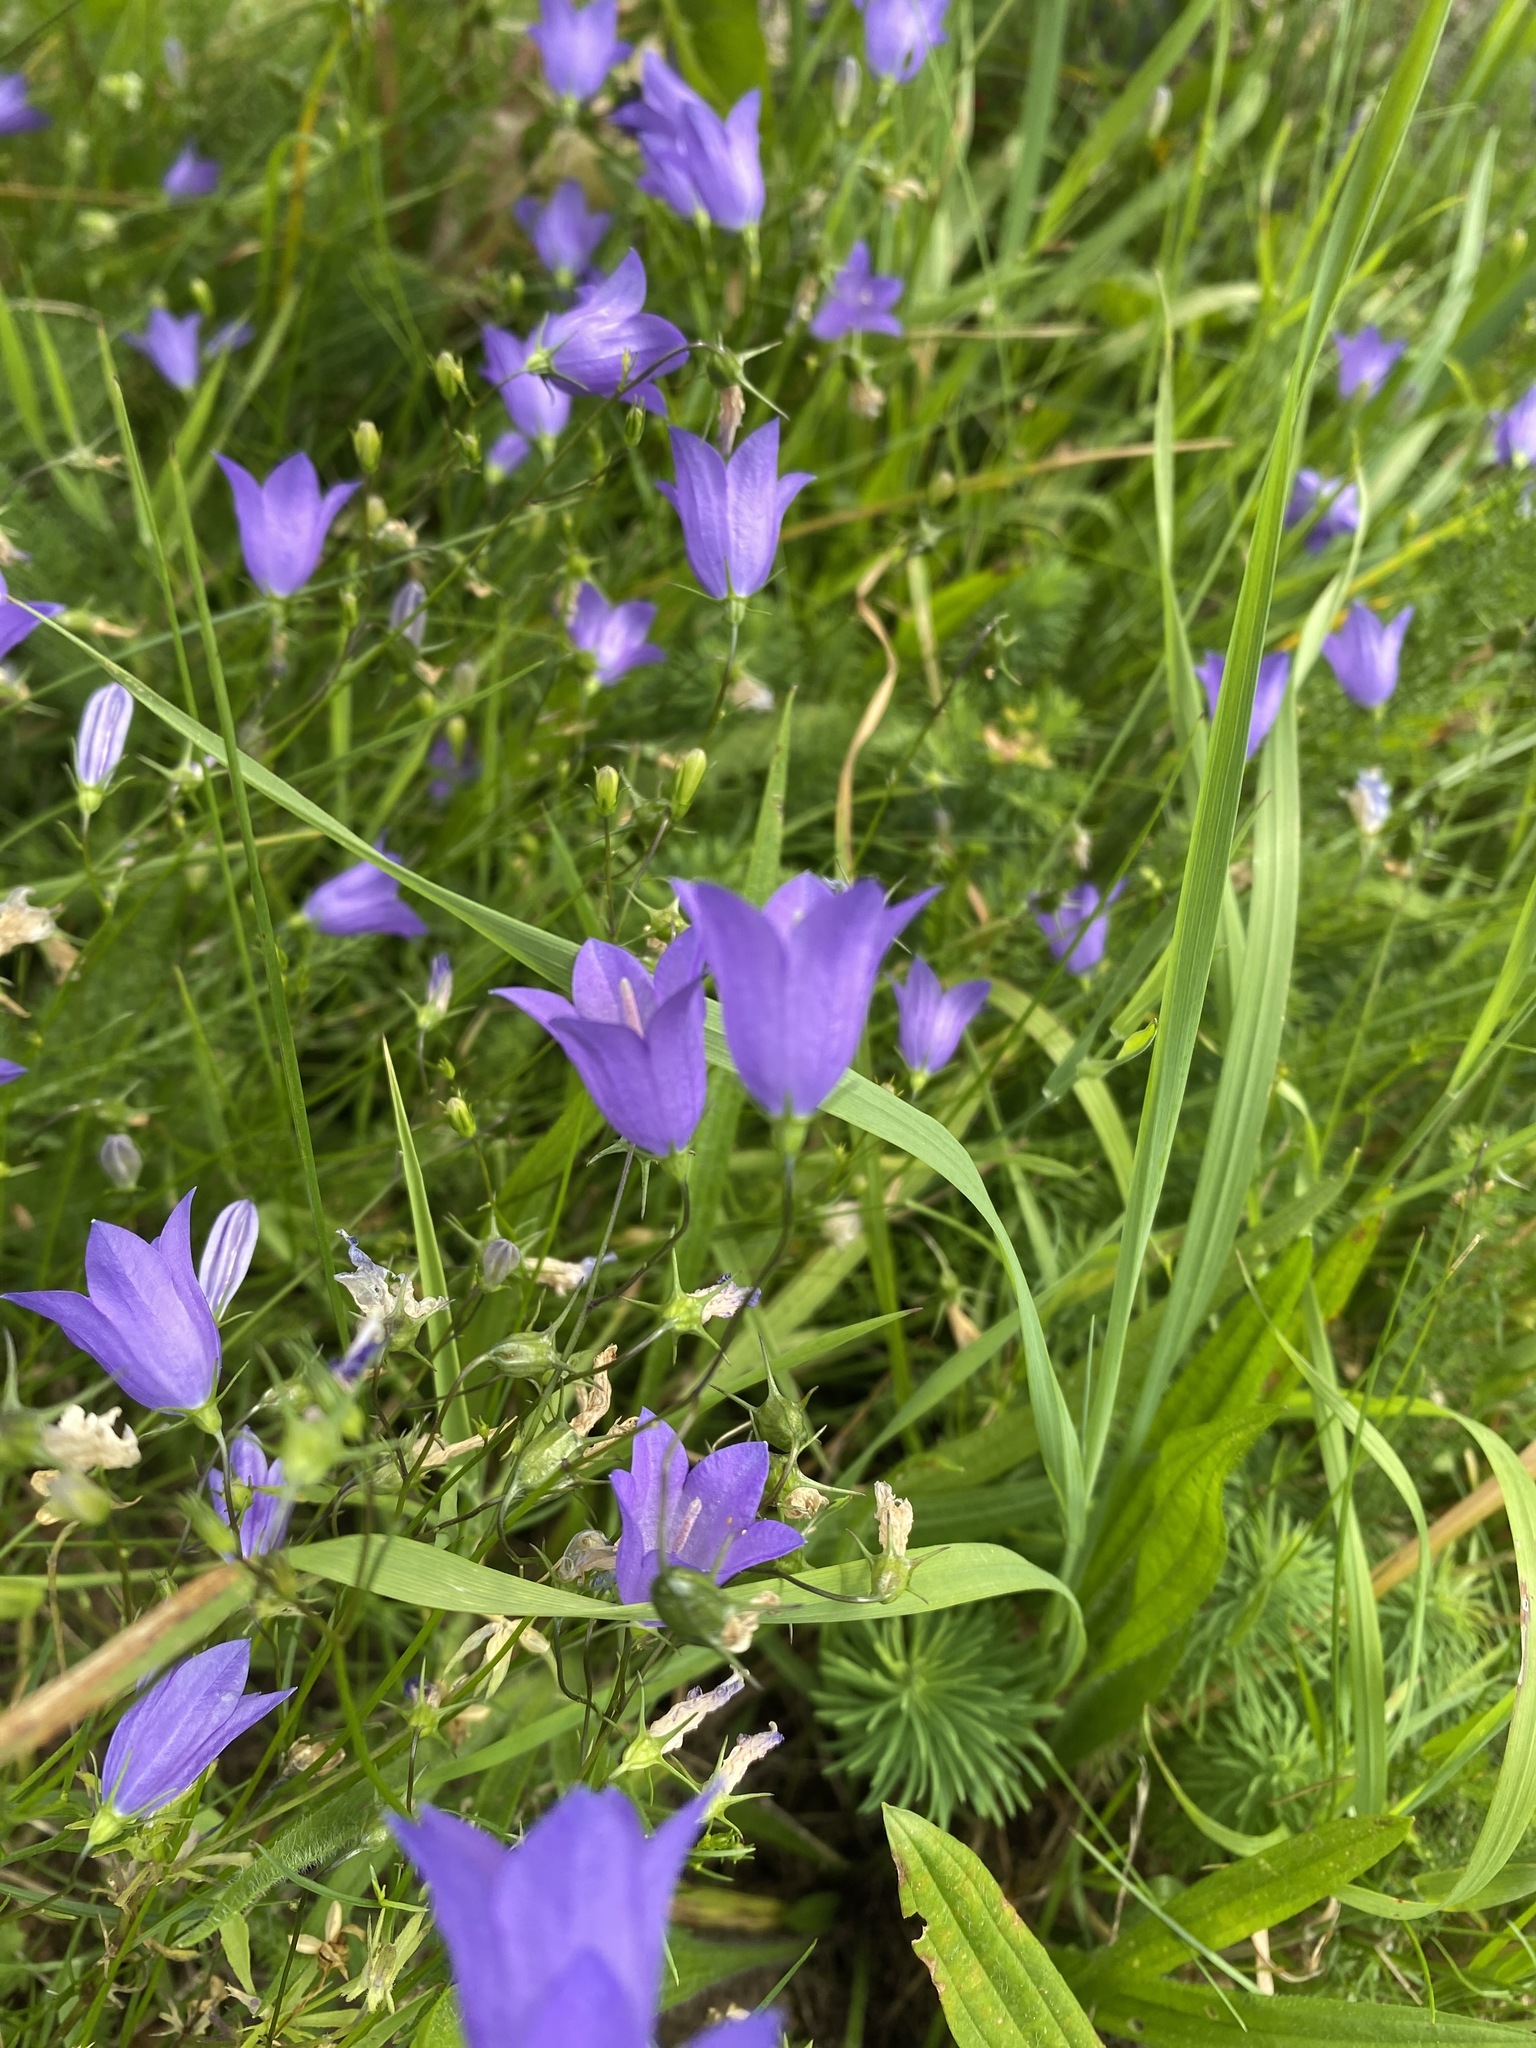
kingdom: Plantae
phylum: Tracheophyta
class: Magnoliopsida
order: Asterales
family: Campanulaceae
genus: Campanula
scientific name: Campanula rotundifolia
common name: Harebell
